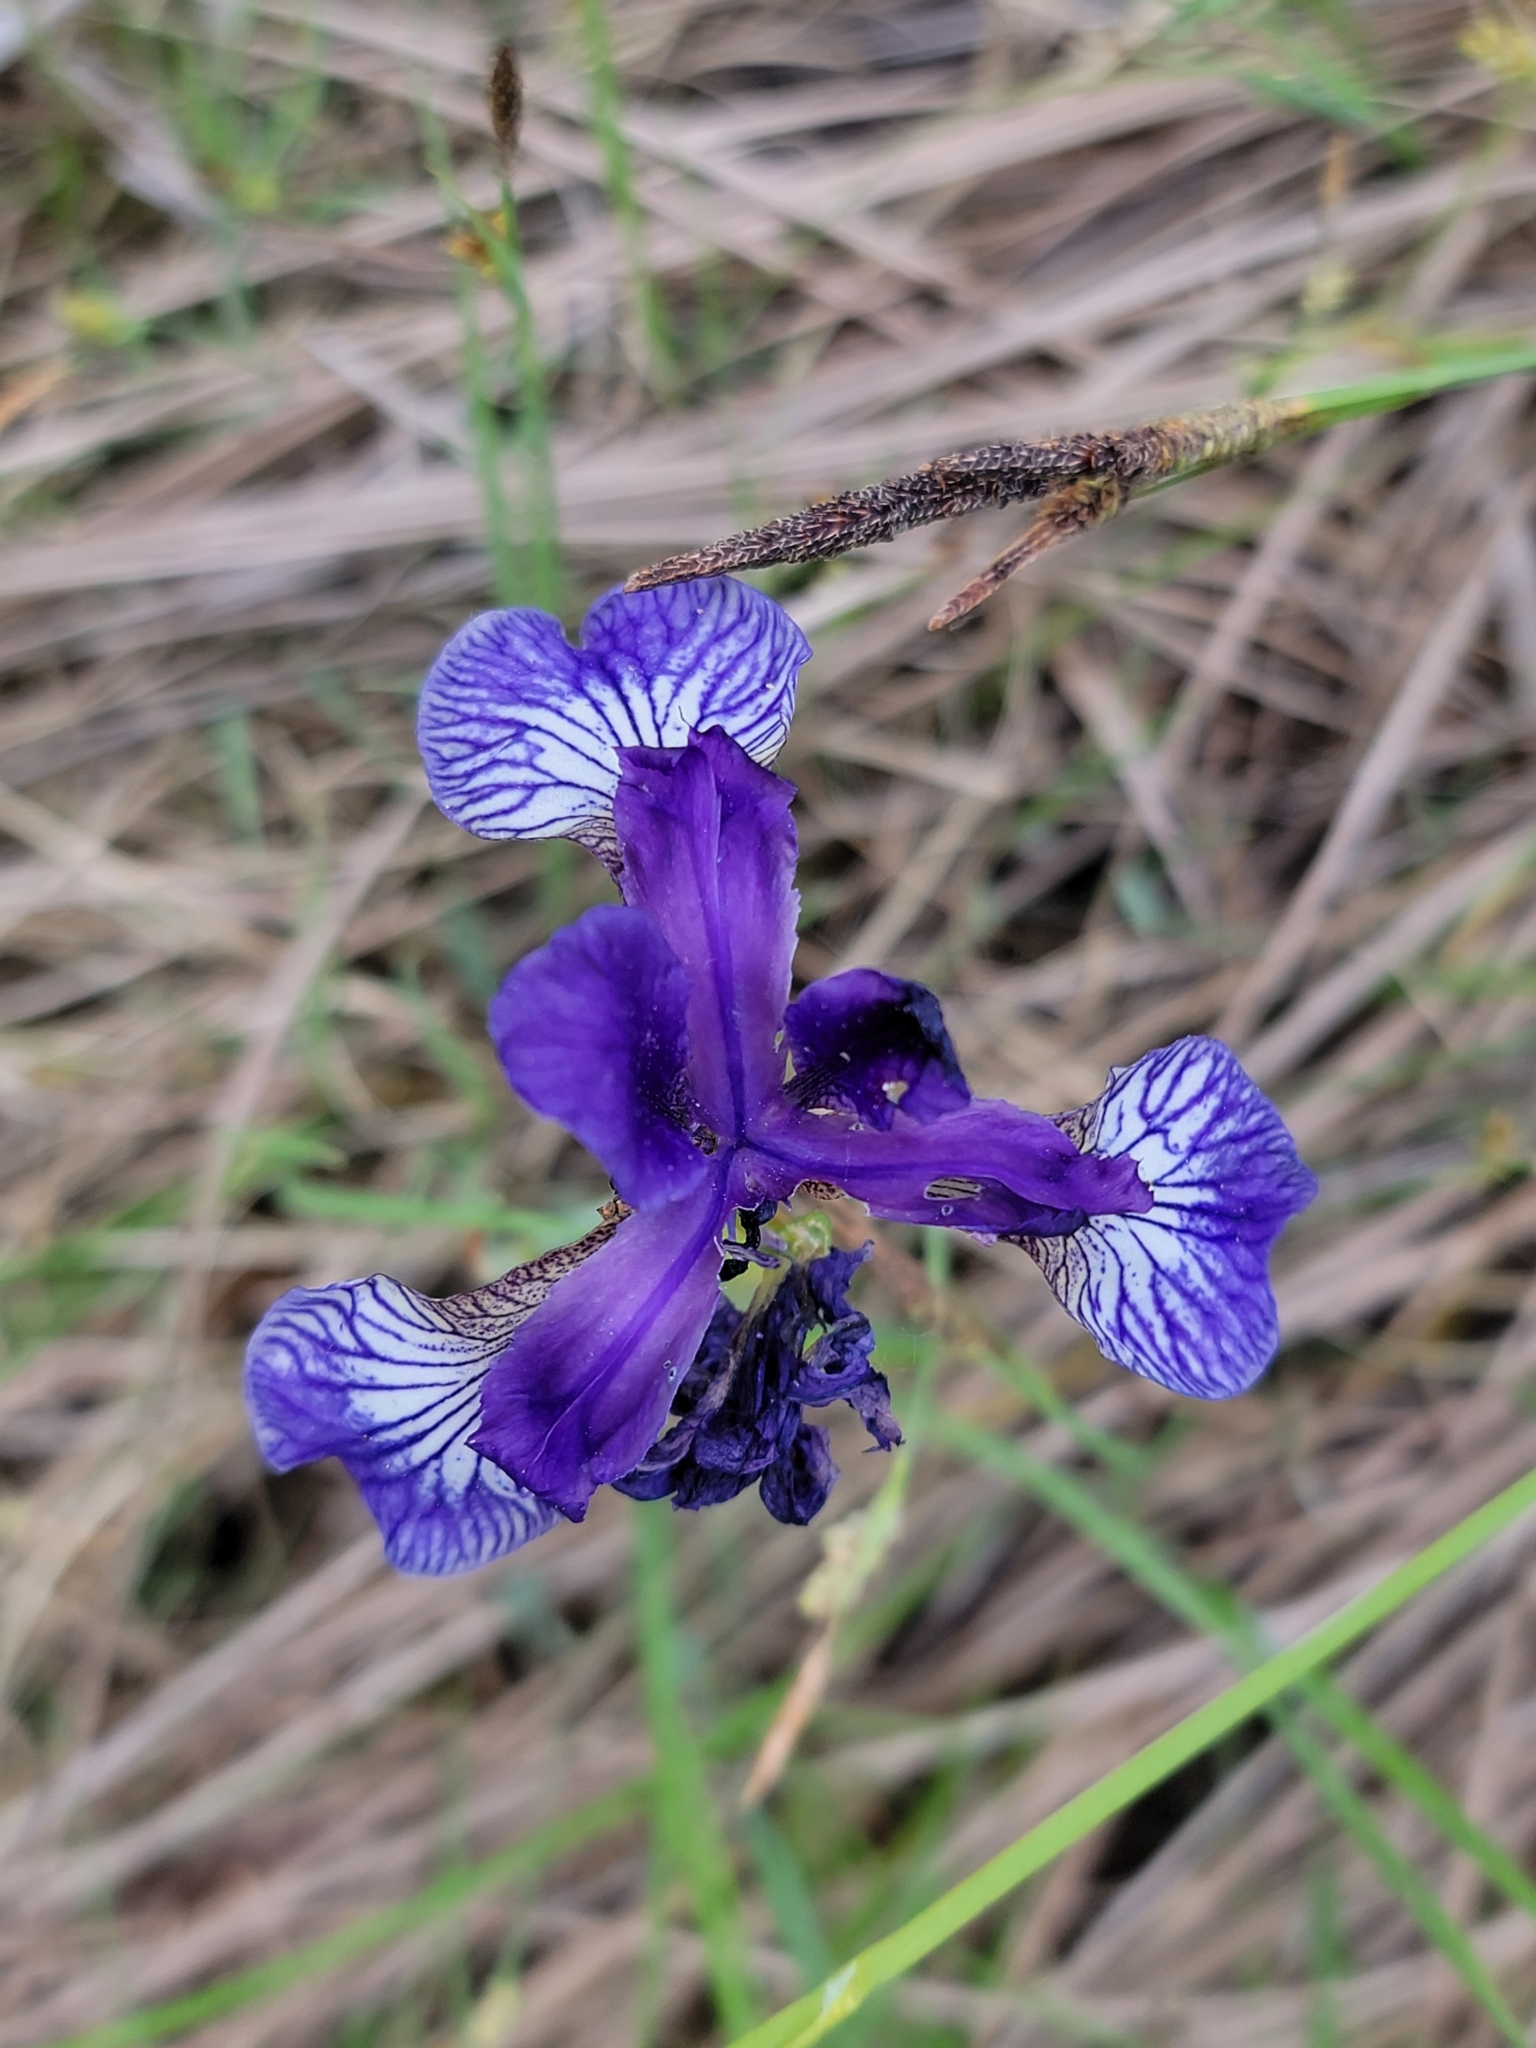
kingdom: Plantae
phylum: Tracheophyta
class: Liliopsida
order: Asparagales
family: Iridaceae
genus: Iris
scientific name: Iris sibirica
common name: Siberian iris
